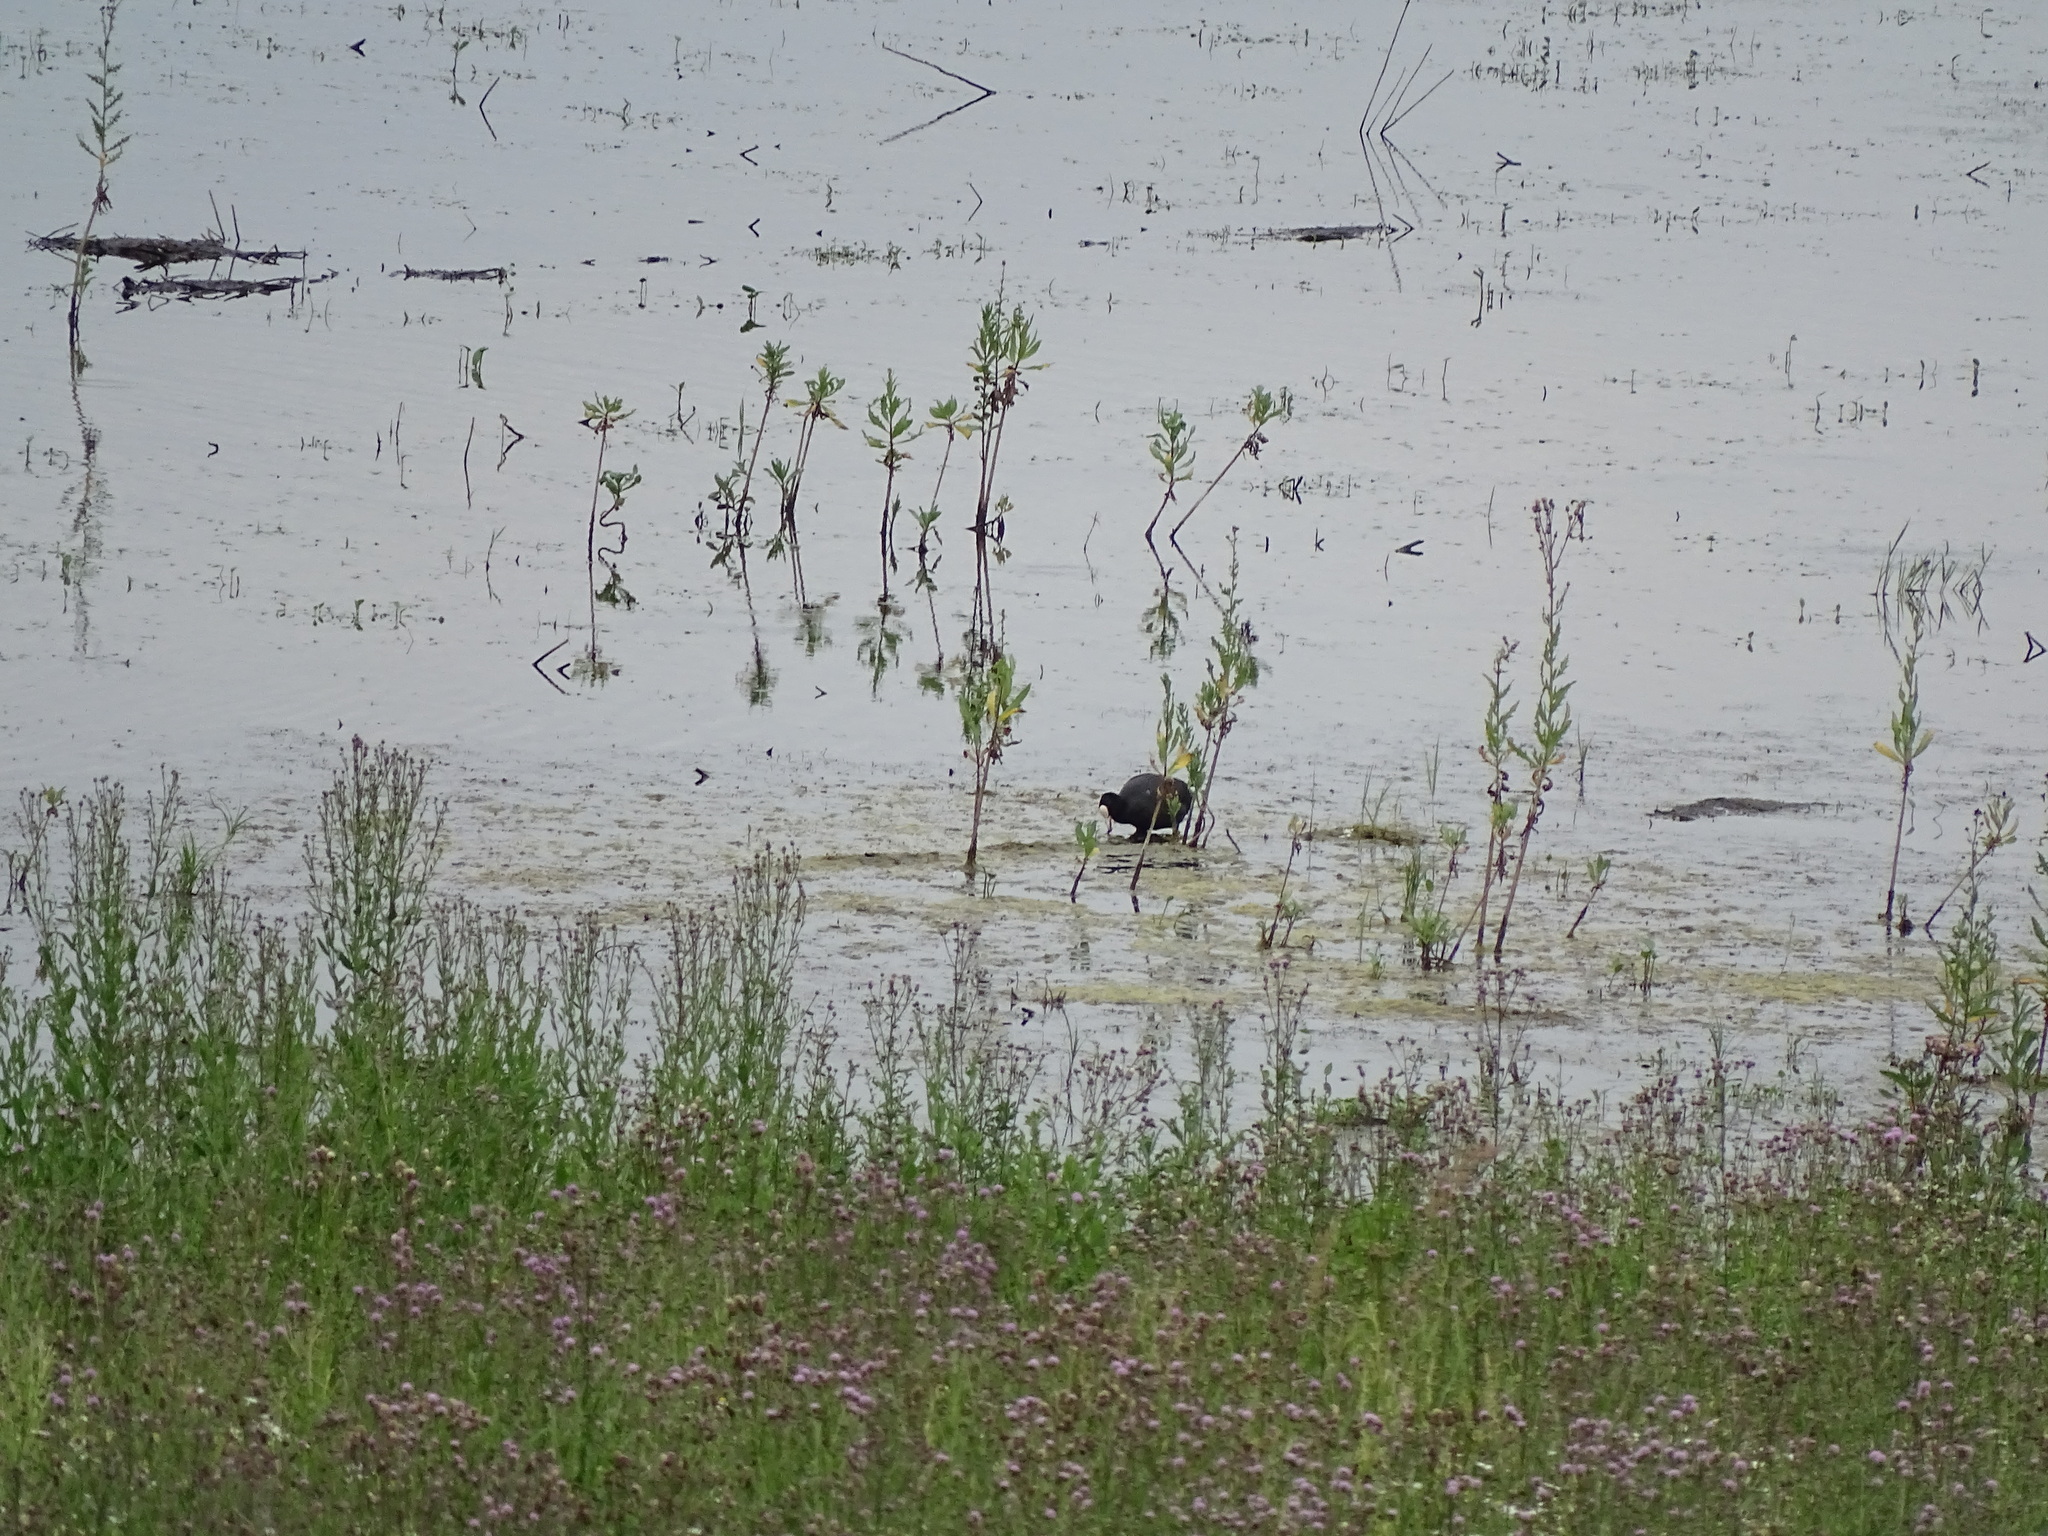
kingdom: Animalia
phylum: Chordata
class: Aves
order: Gruiformes
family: Rallidae
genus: Fulica
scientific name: Fulica atra
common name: Eurasian coot
